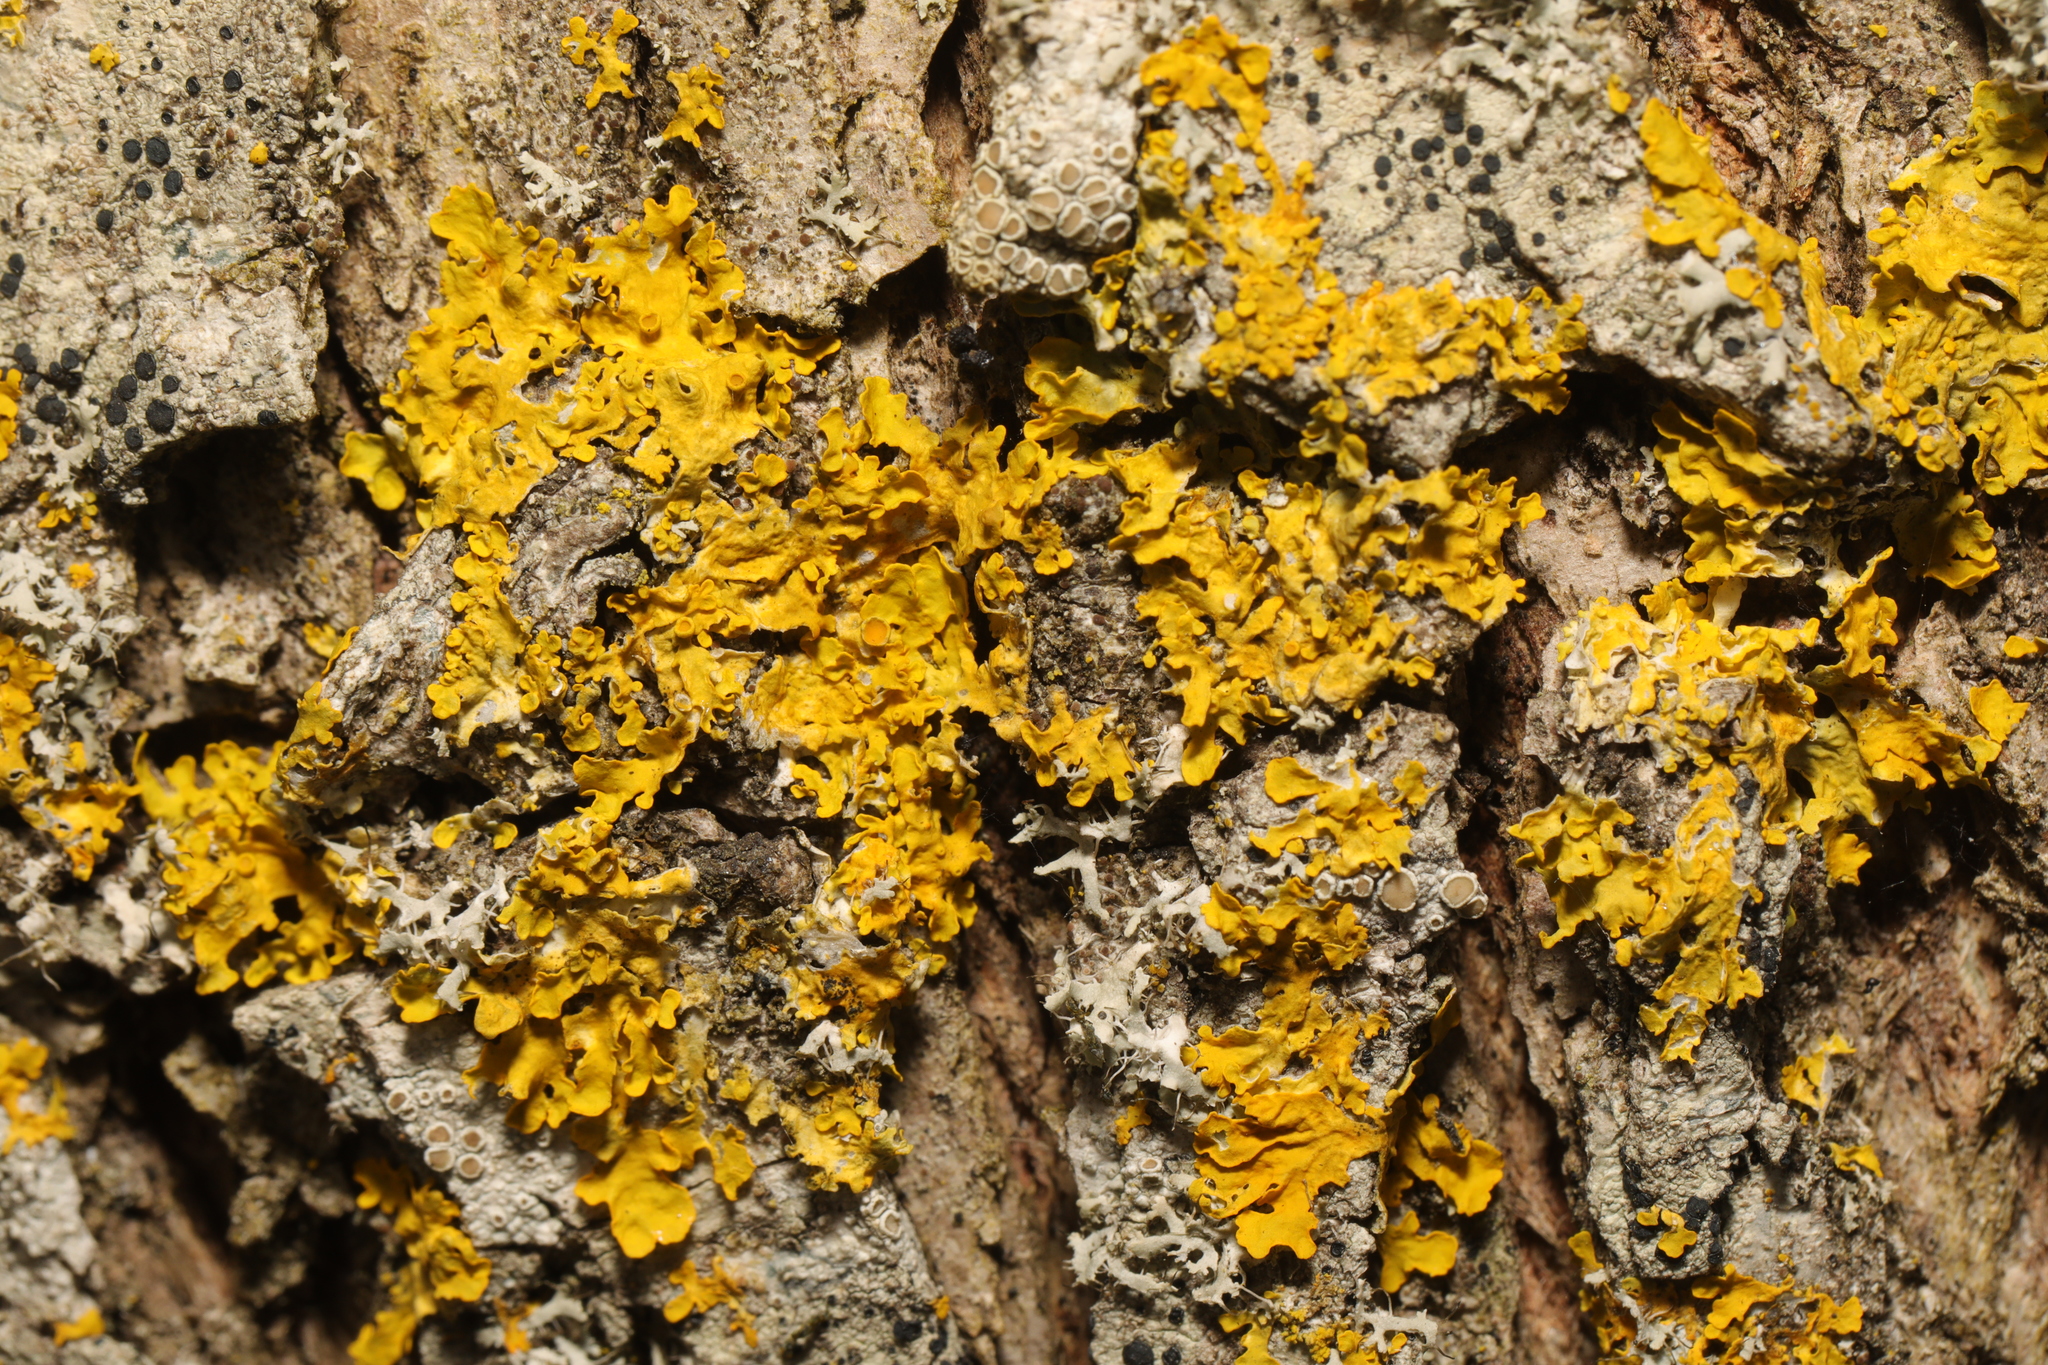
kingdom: Fungi
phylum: Ascomycota
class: Lecanoromycetes
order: Teloschistales
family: Teloschistaceae
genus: Xanthoria
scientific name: Xanthoria parietina
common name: Common orange lichen
